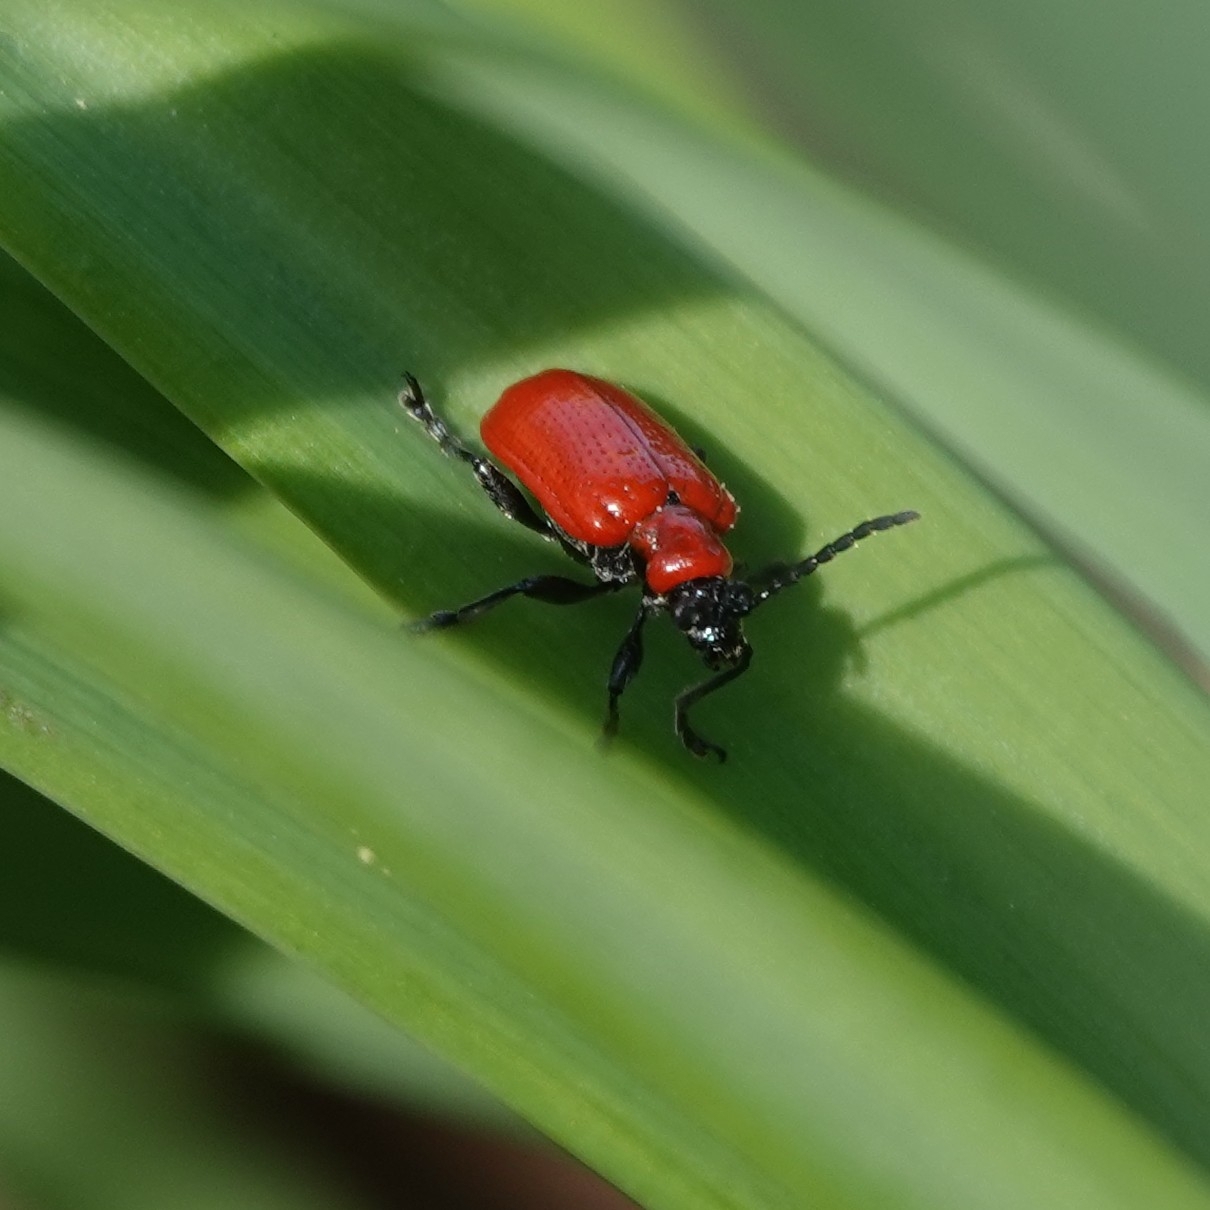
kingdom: Animalia
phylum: Arthropoda
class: Insecta
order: Coleoptera
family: Chrysomelidae
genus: Lilioceris
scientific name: Lilioceris lilii
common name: Lily beetle
